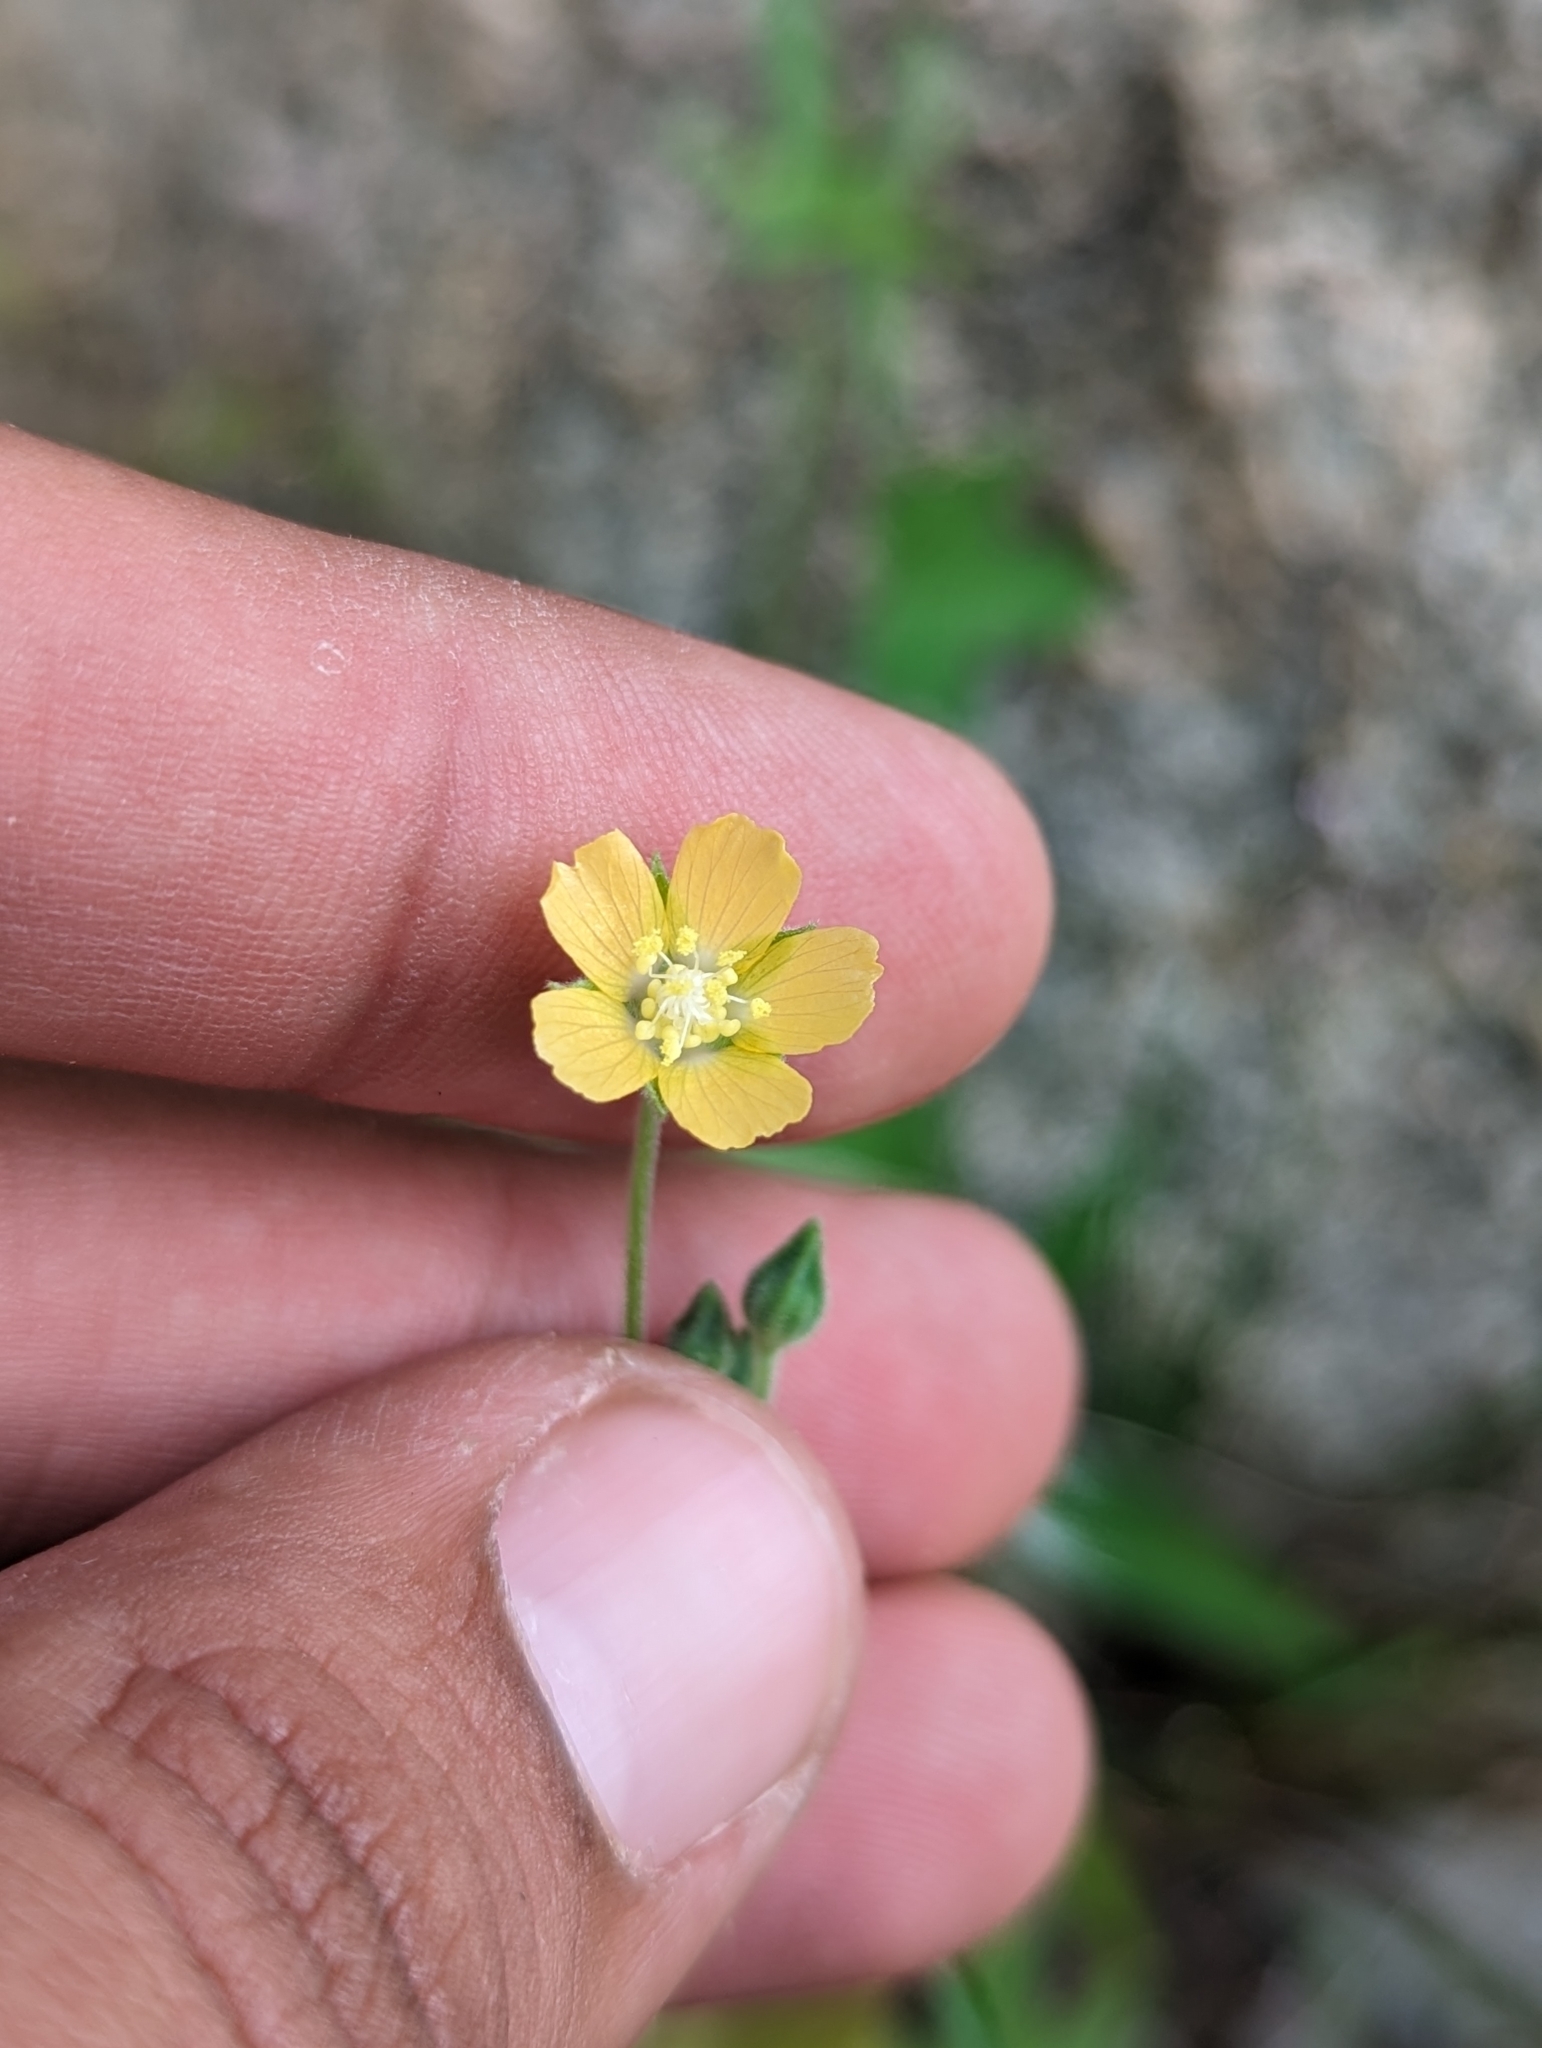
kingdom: Plantae
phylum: Tracheophyta
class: Magnoliopsida
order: Malvales
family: Malvaceae
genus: Anoda
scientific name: Anoda palmata
